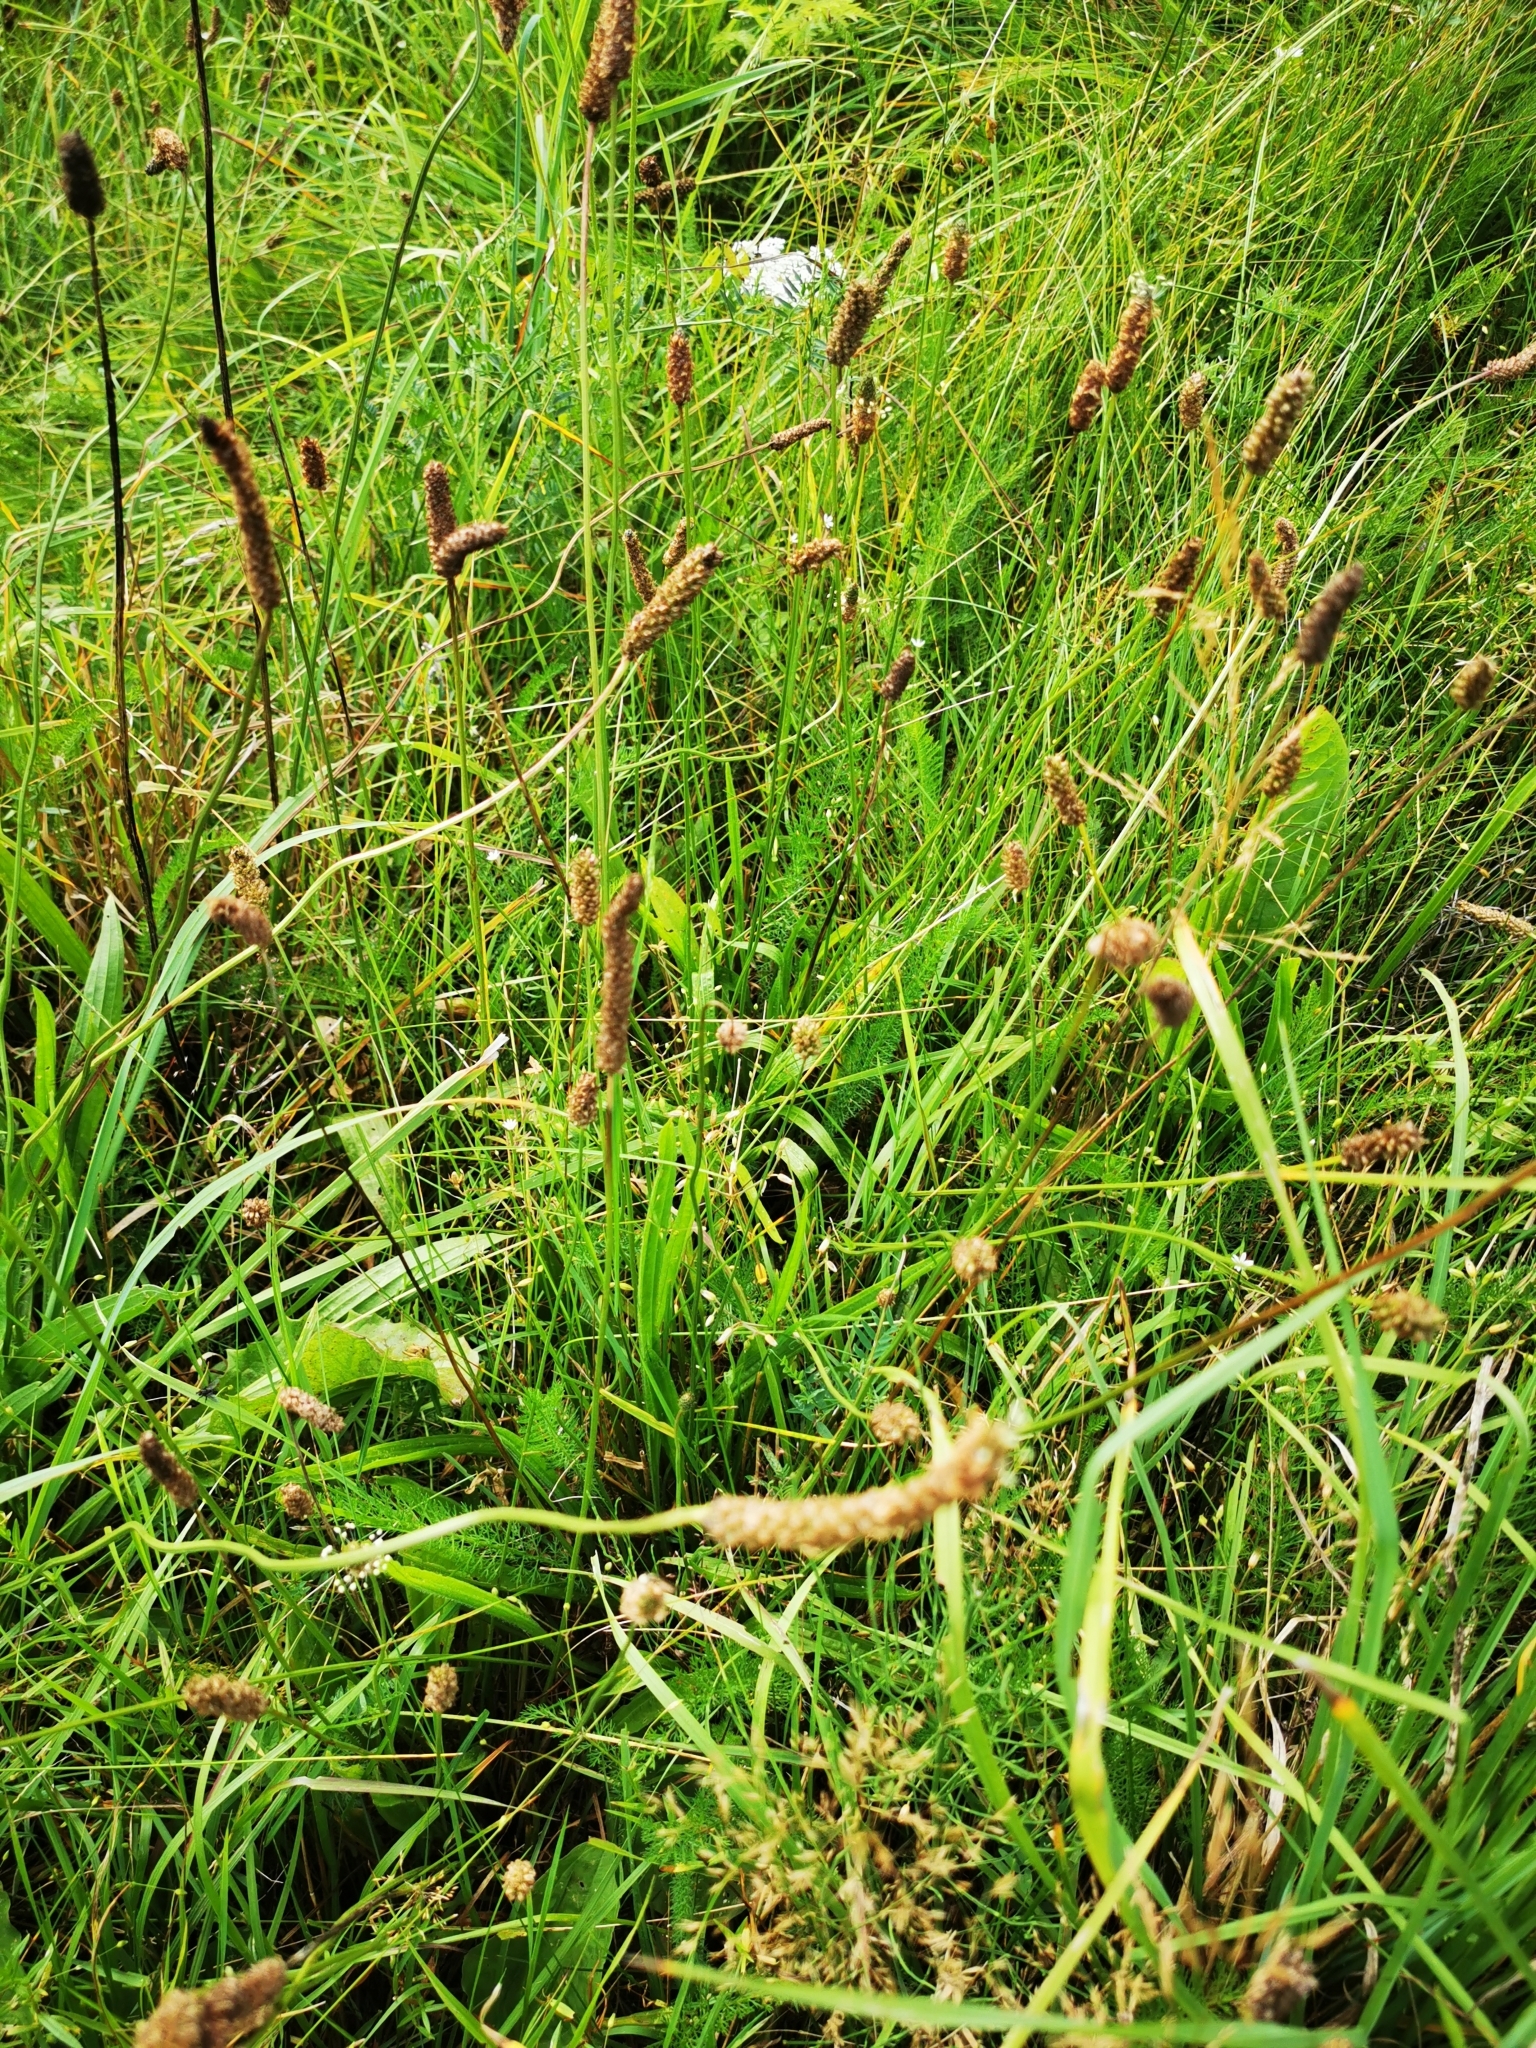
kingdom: Plantae
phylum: Tracheophyta
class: Magnoliopsida
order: Lamiales
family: Plantaginaceae
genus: Plantago
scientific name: Plantago lanceolata
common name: Ribwort plantain
